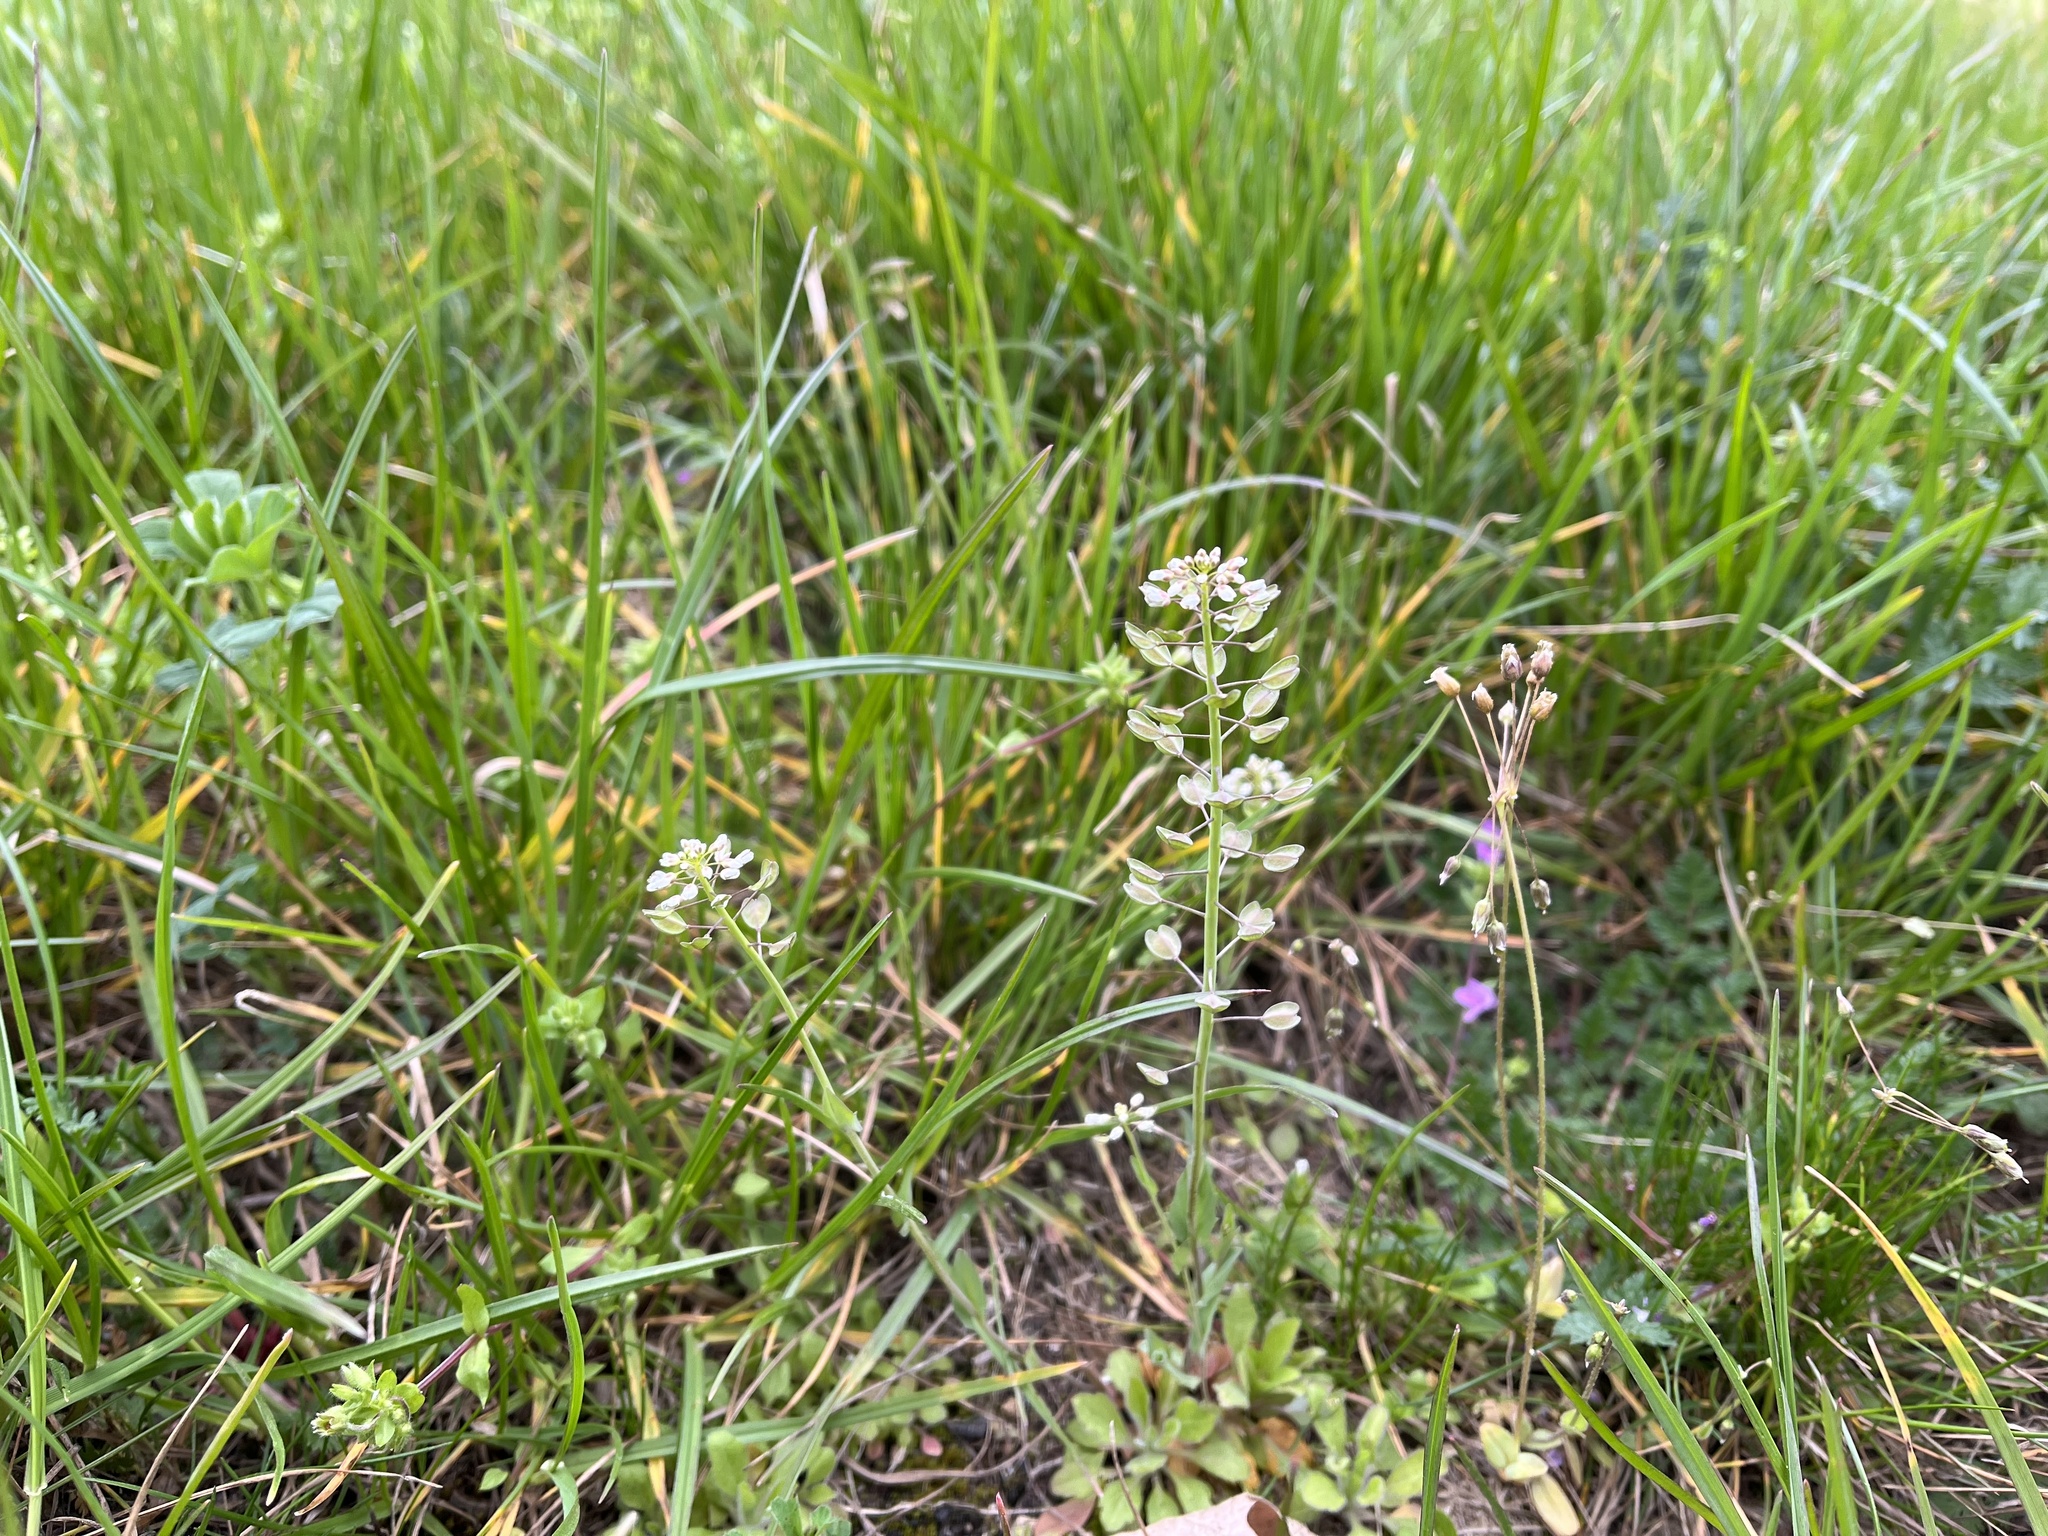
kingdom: Plantae
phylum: Tracheophyta
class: Magnoliopsida
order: Brassicales
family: Brassicaceae
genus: Noccaea
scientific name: Noccaea perfoliata
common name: Perfoliate pennycress
